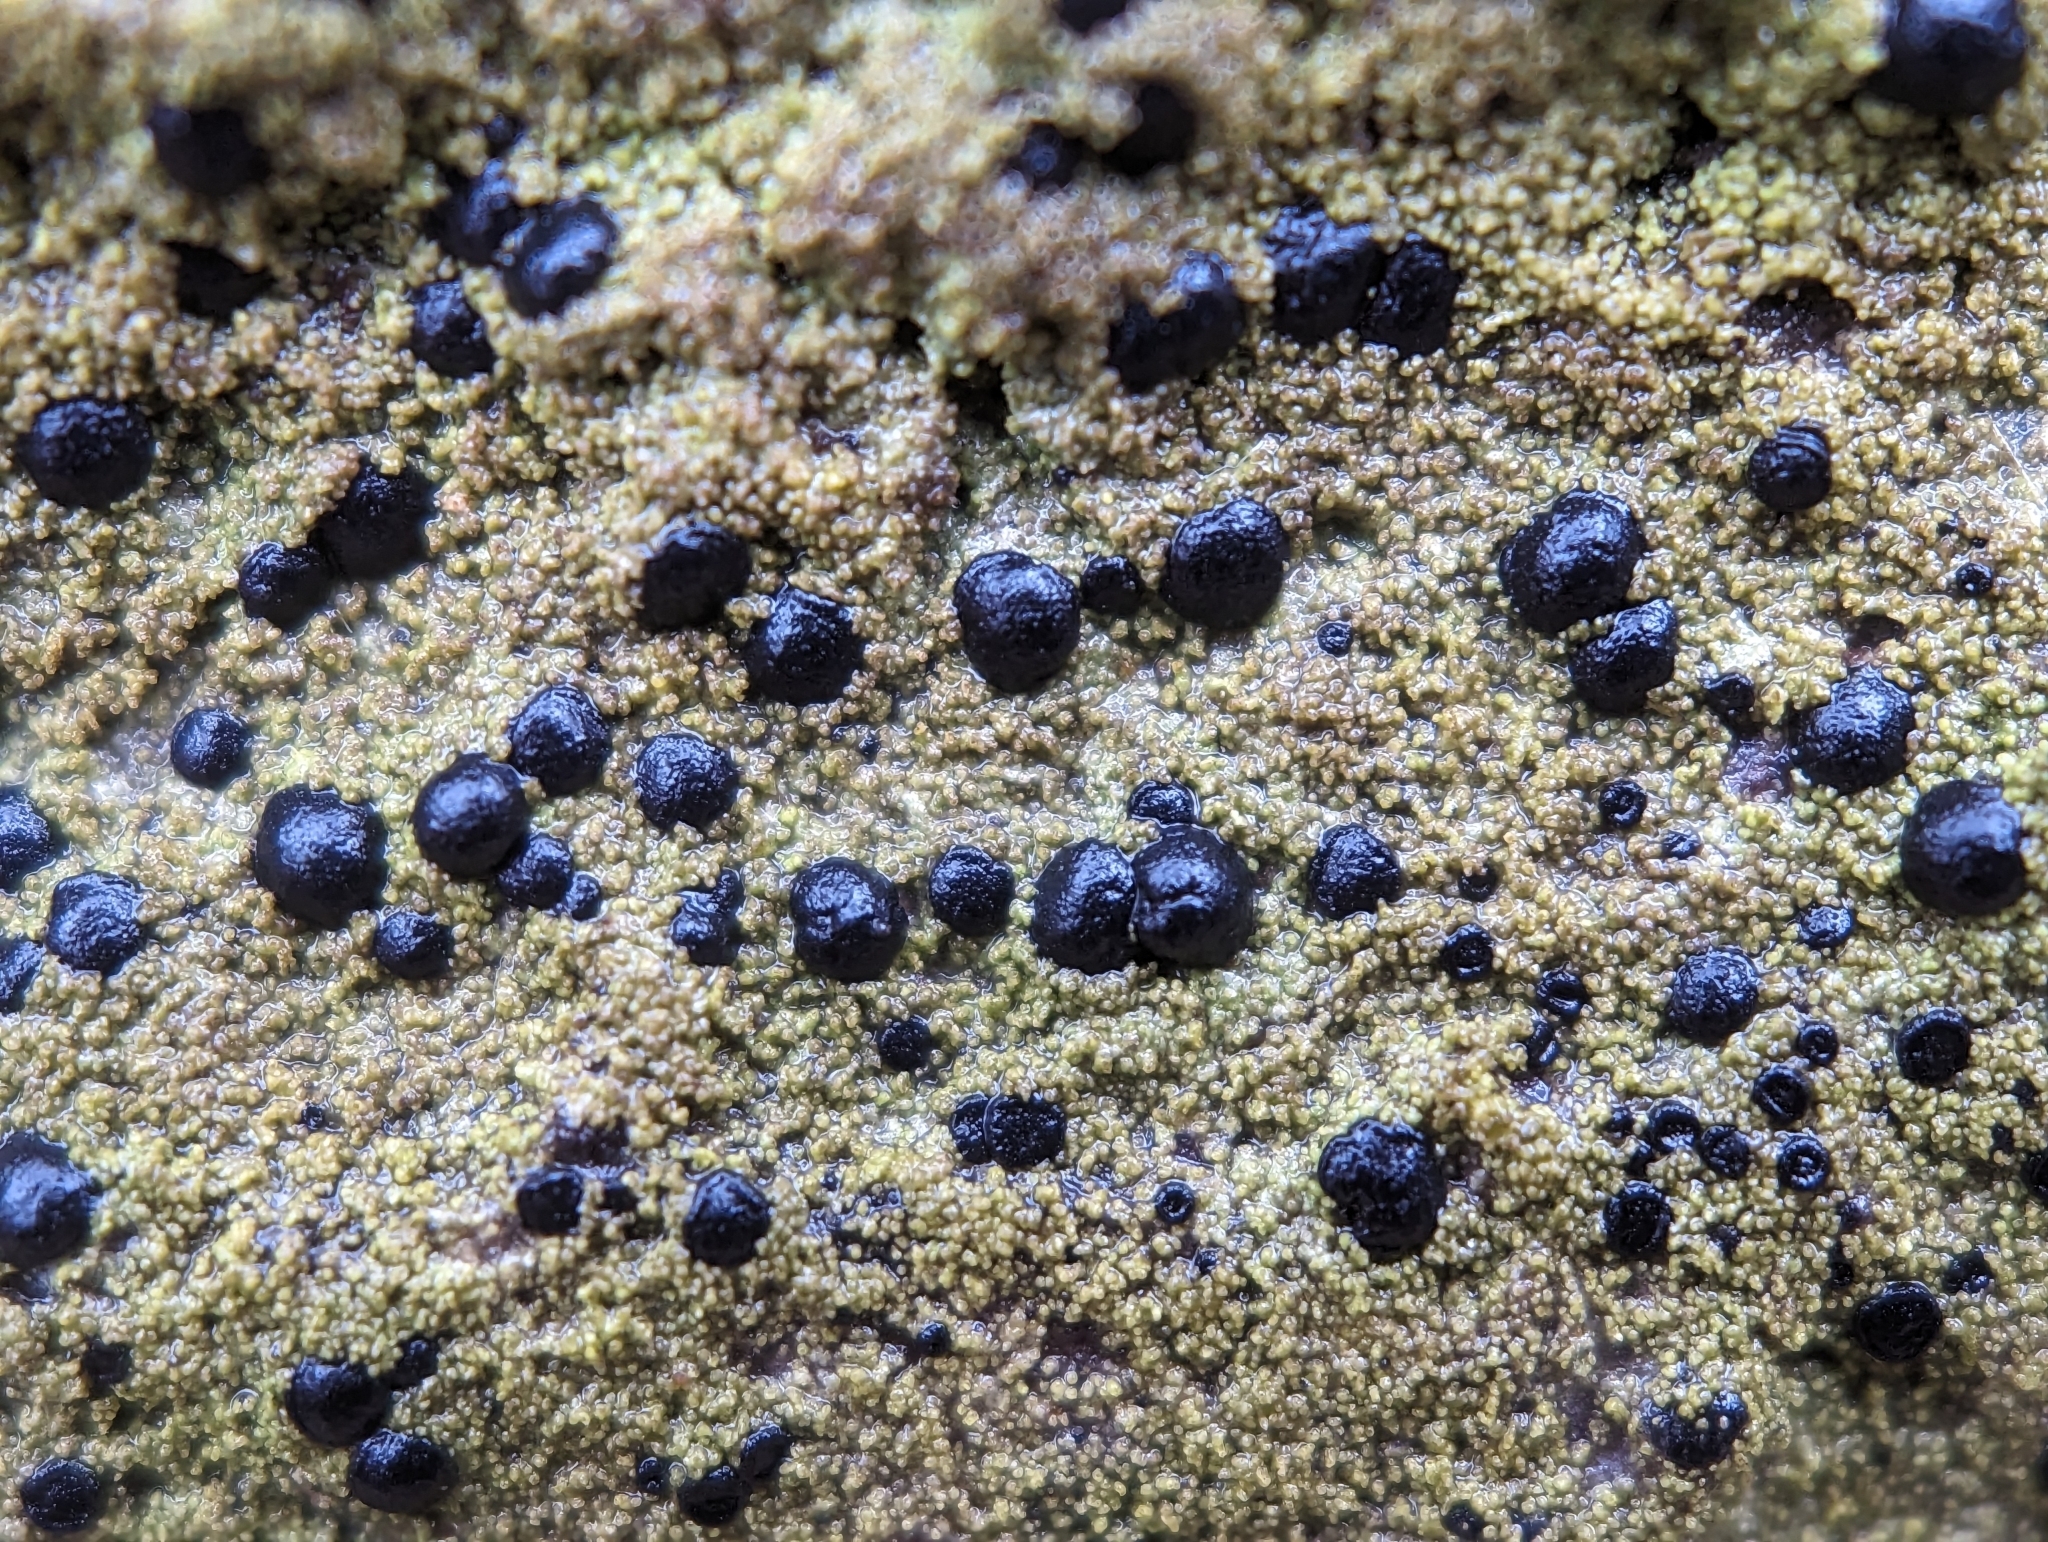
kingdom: Fungi
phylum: Ascomycota
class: Lecanoromycetes
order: Lecanorales
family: Ramalinaceae
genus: Bacidia
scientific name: Bacidia schweinitzii
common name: Surprise lichen
